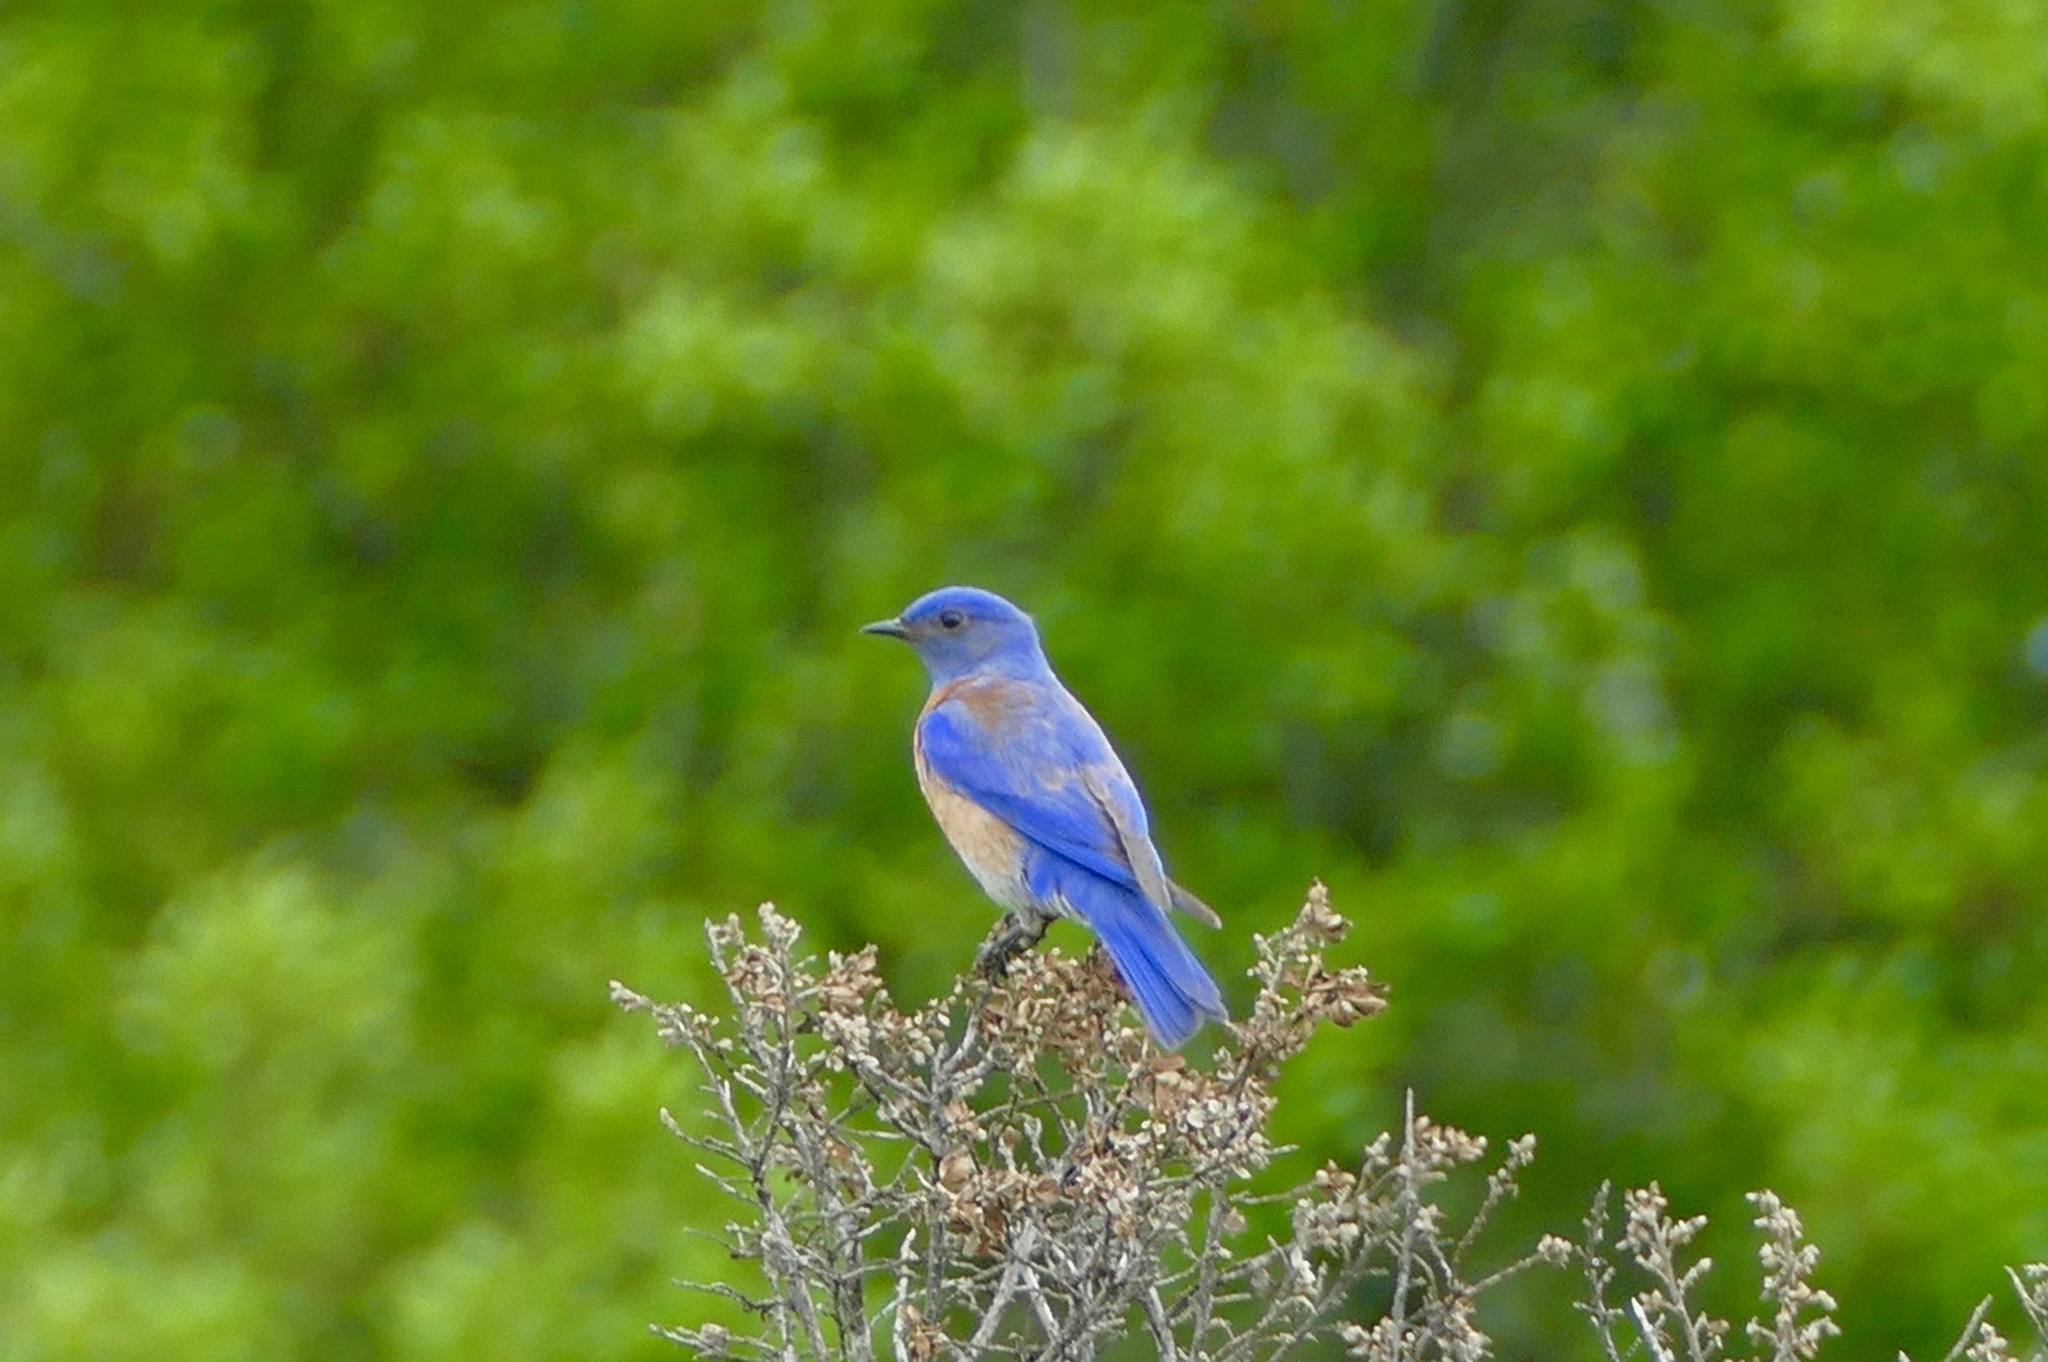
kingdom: Animalia
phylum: Chordata
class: Aves
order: Passeriformes
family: Turdidae
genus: Sialia
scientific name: Sialia mexicana
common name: Western bluebird
